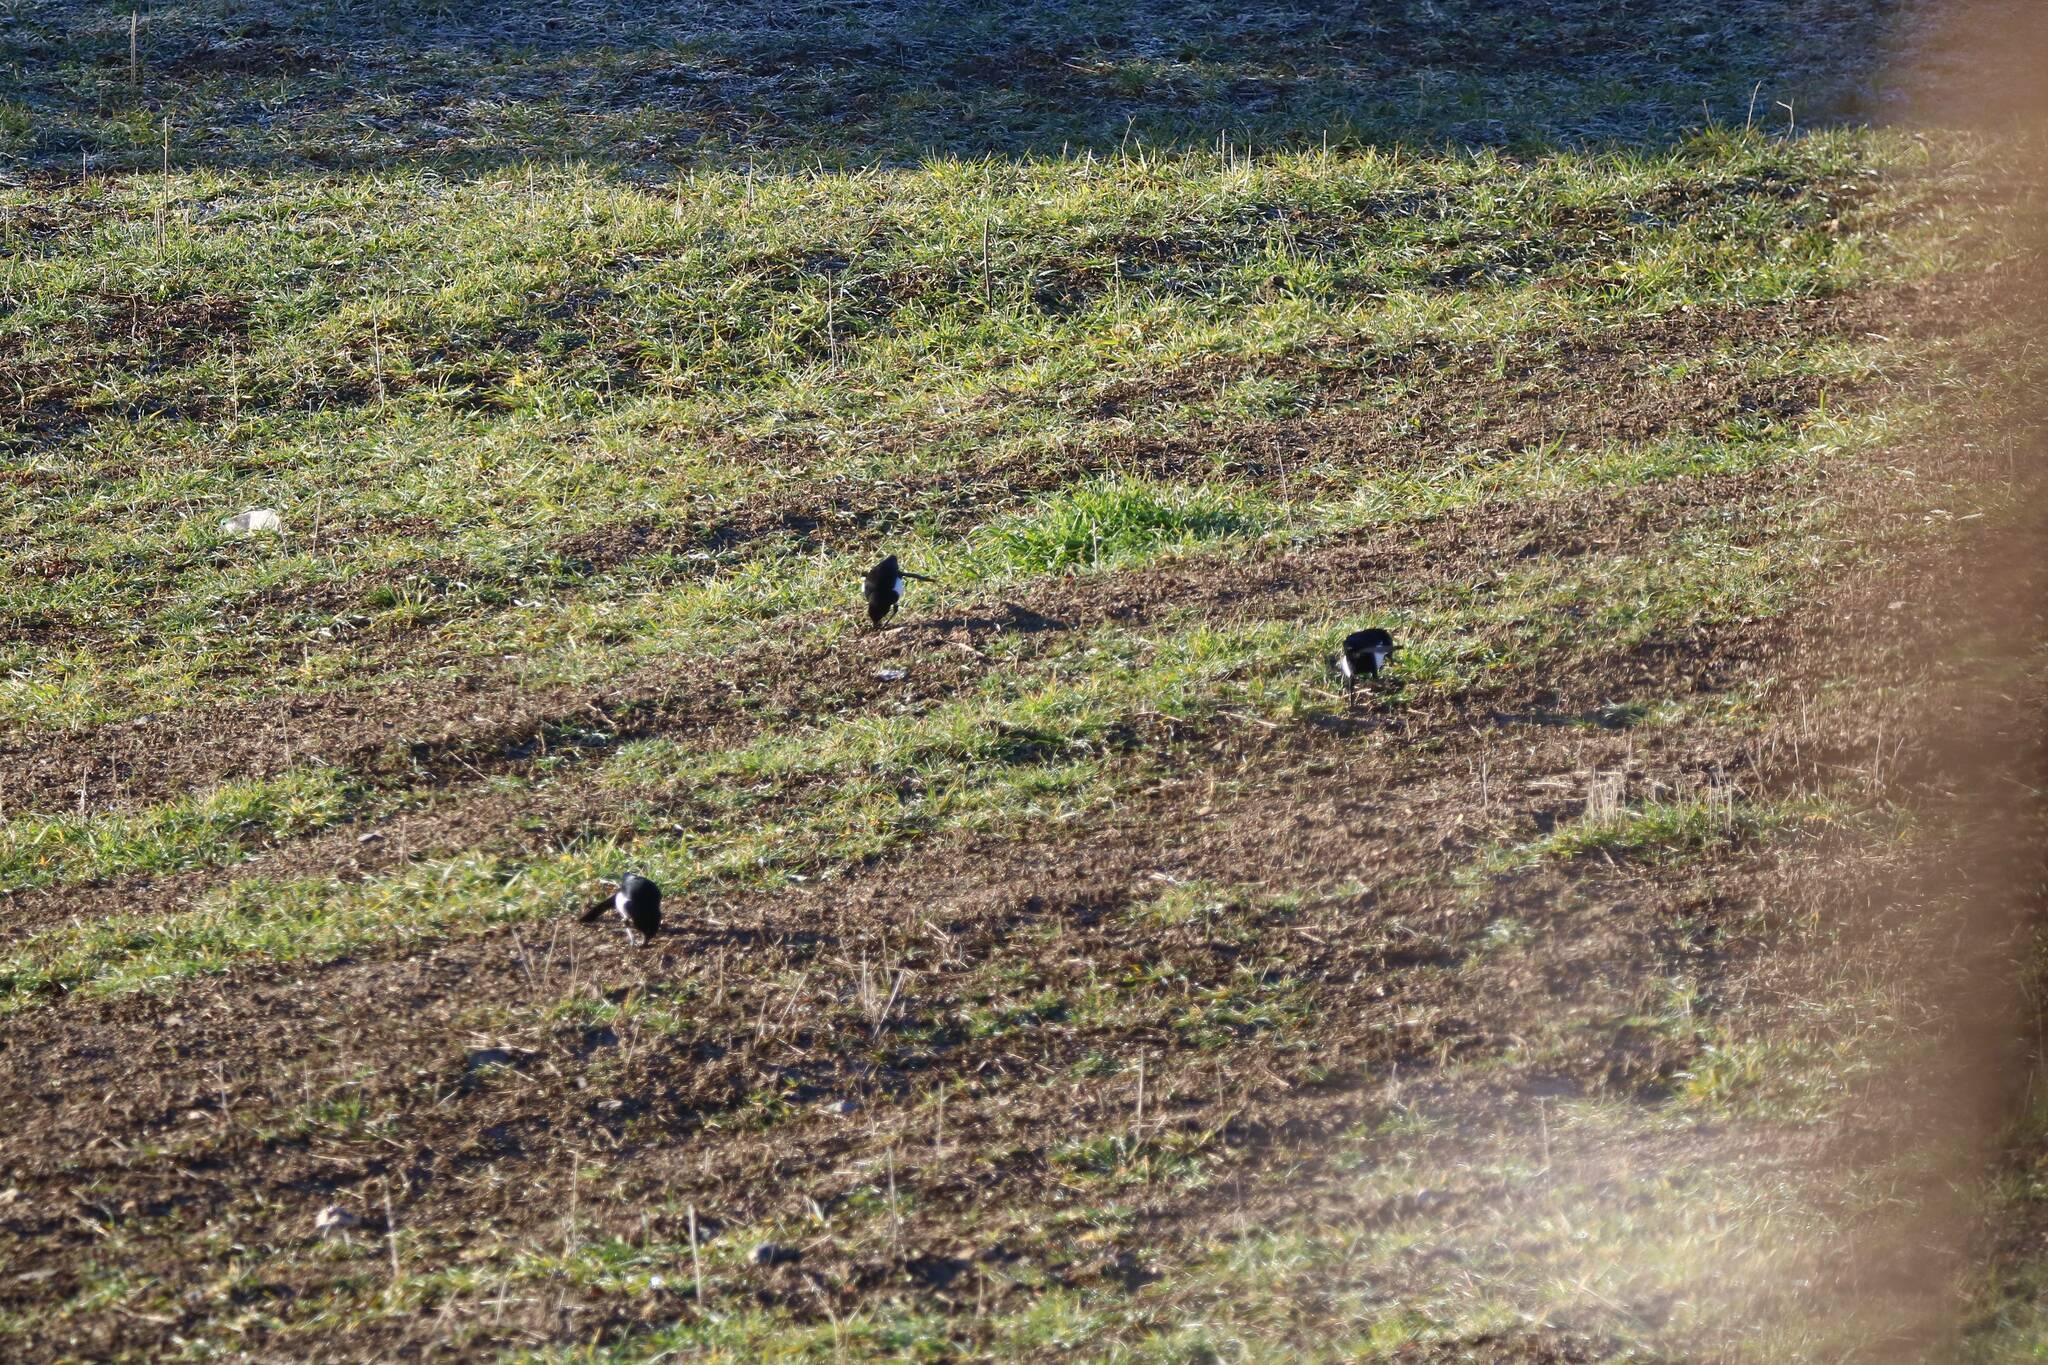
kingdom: Animalia
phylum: Chordata
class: Aves
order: Passeriformes
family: Corvidae
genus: Pica
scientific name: Pica mauritanica
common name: Maghreb magpie
